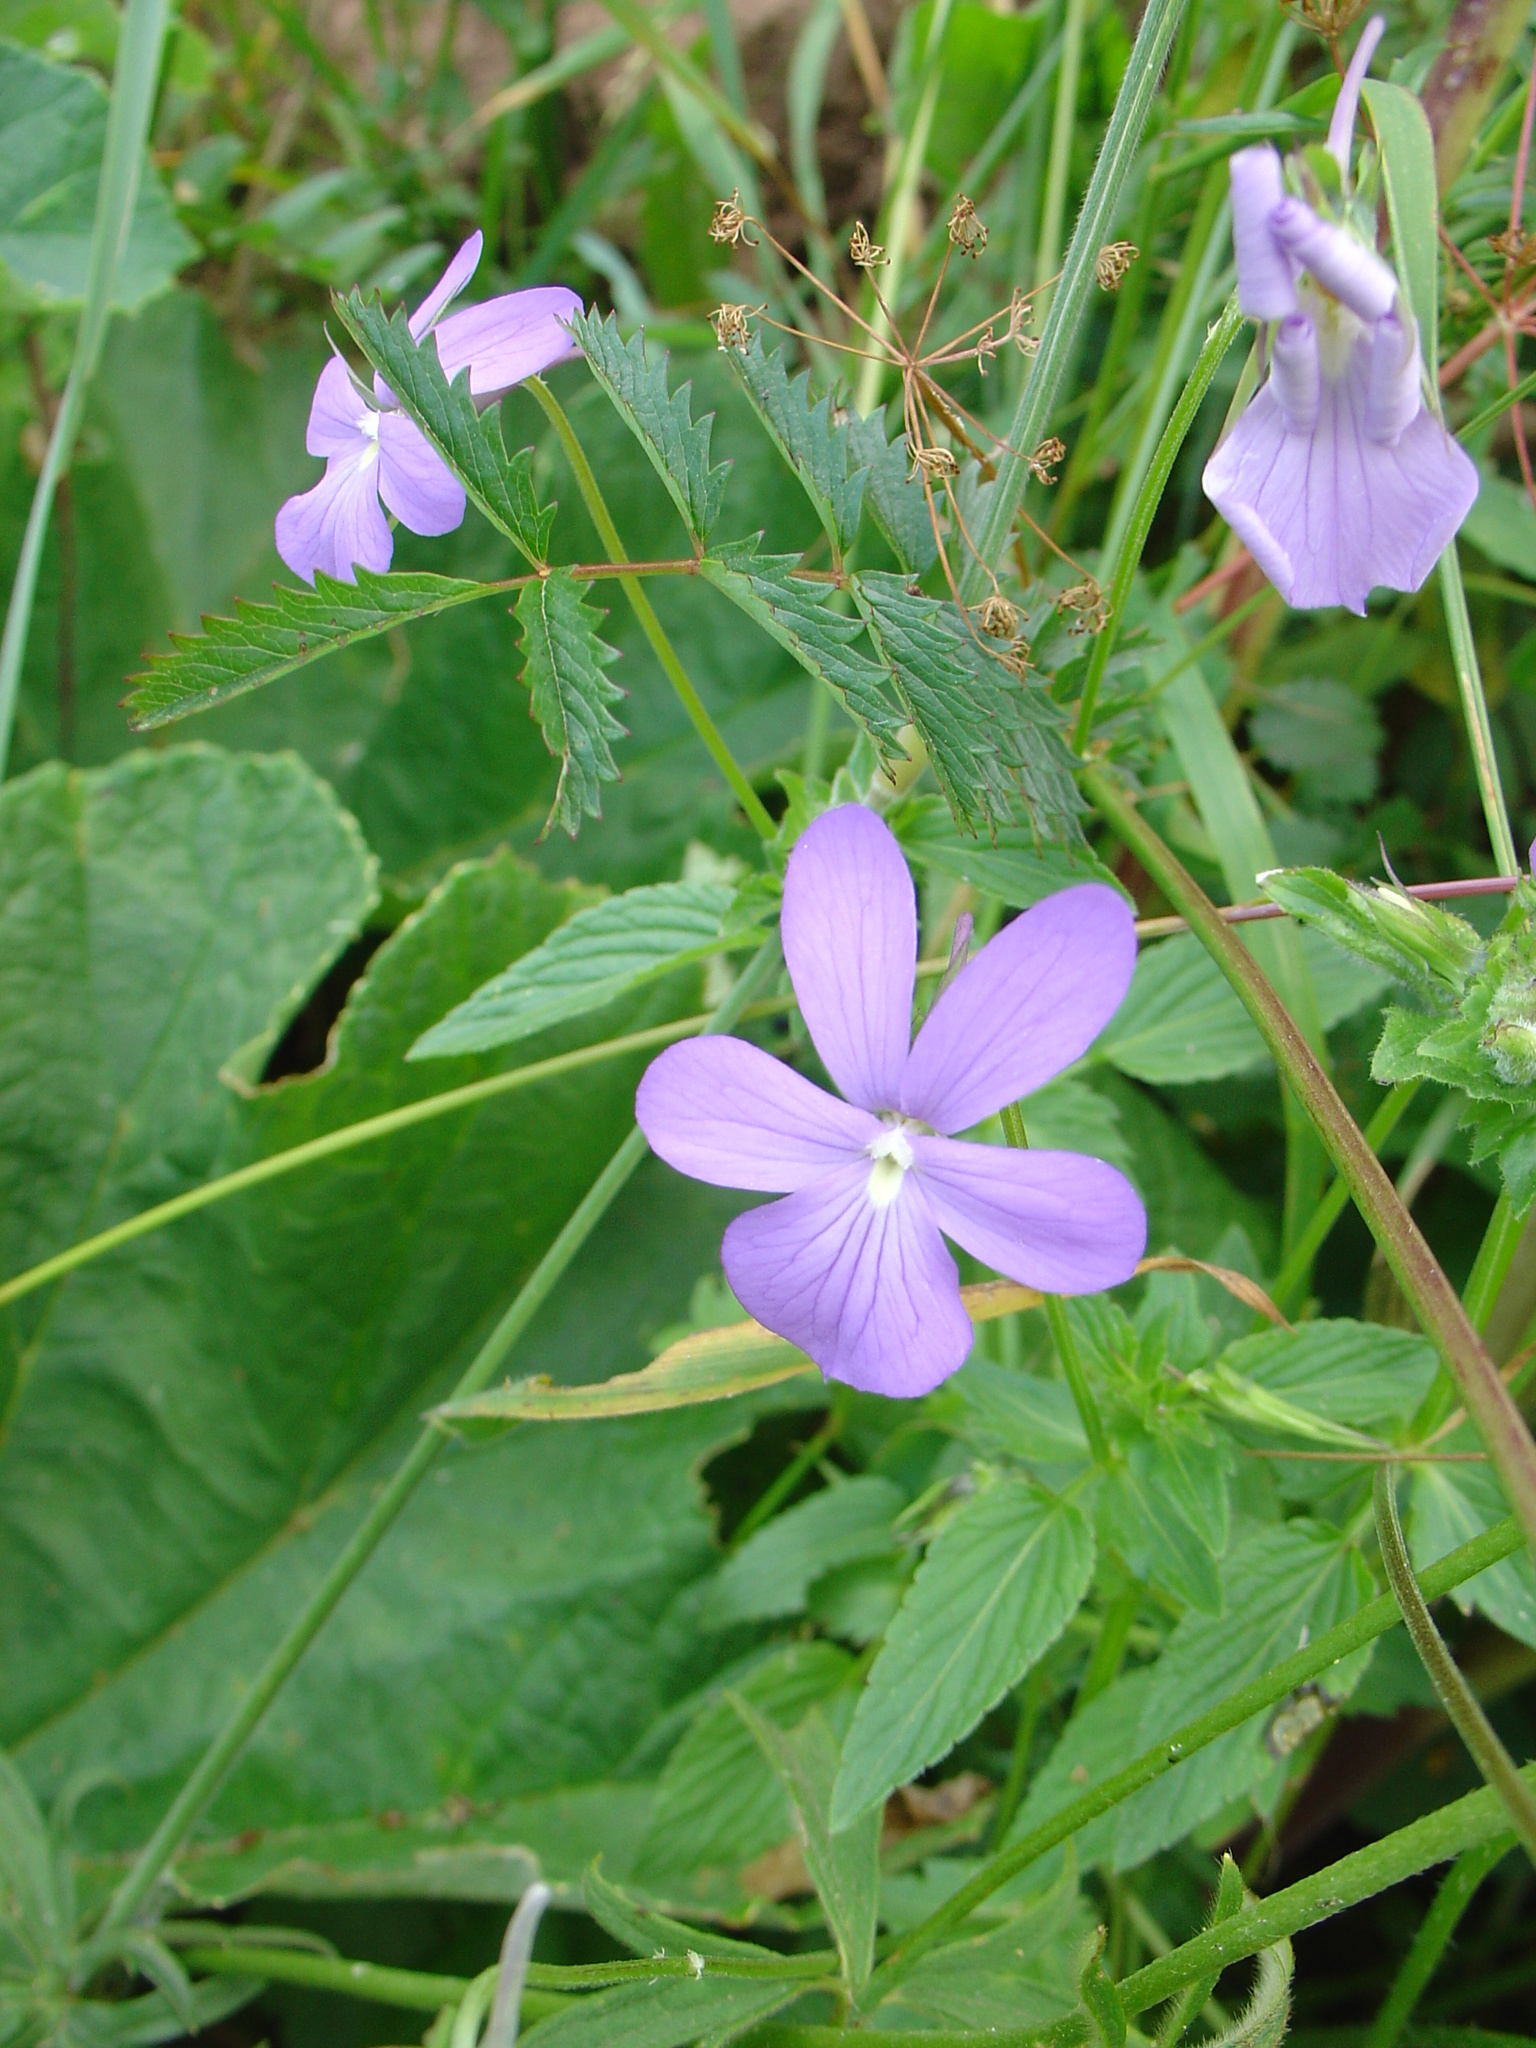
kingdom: Plantae
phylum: Tracheophyta
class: Magnoliopsida
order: Malpighiales
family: Violaceae
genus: Viola
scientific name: Viola cornuta
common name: Horned pansy
